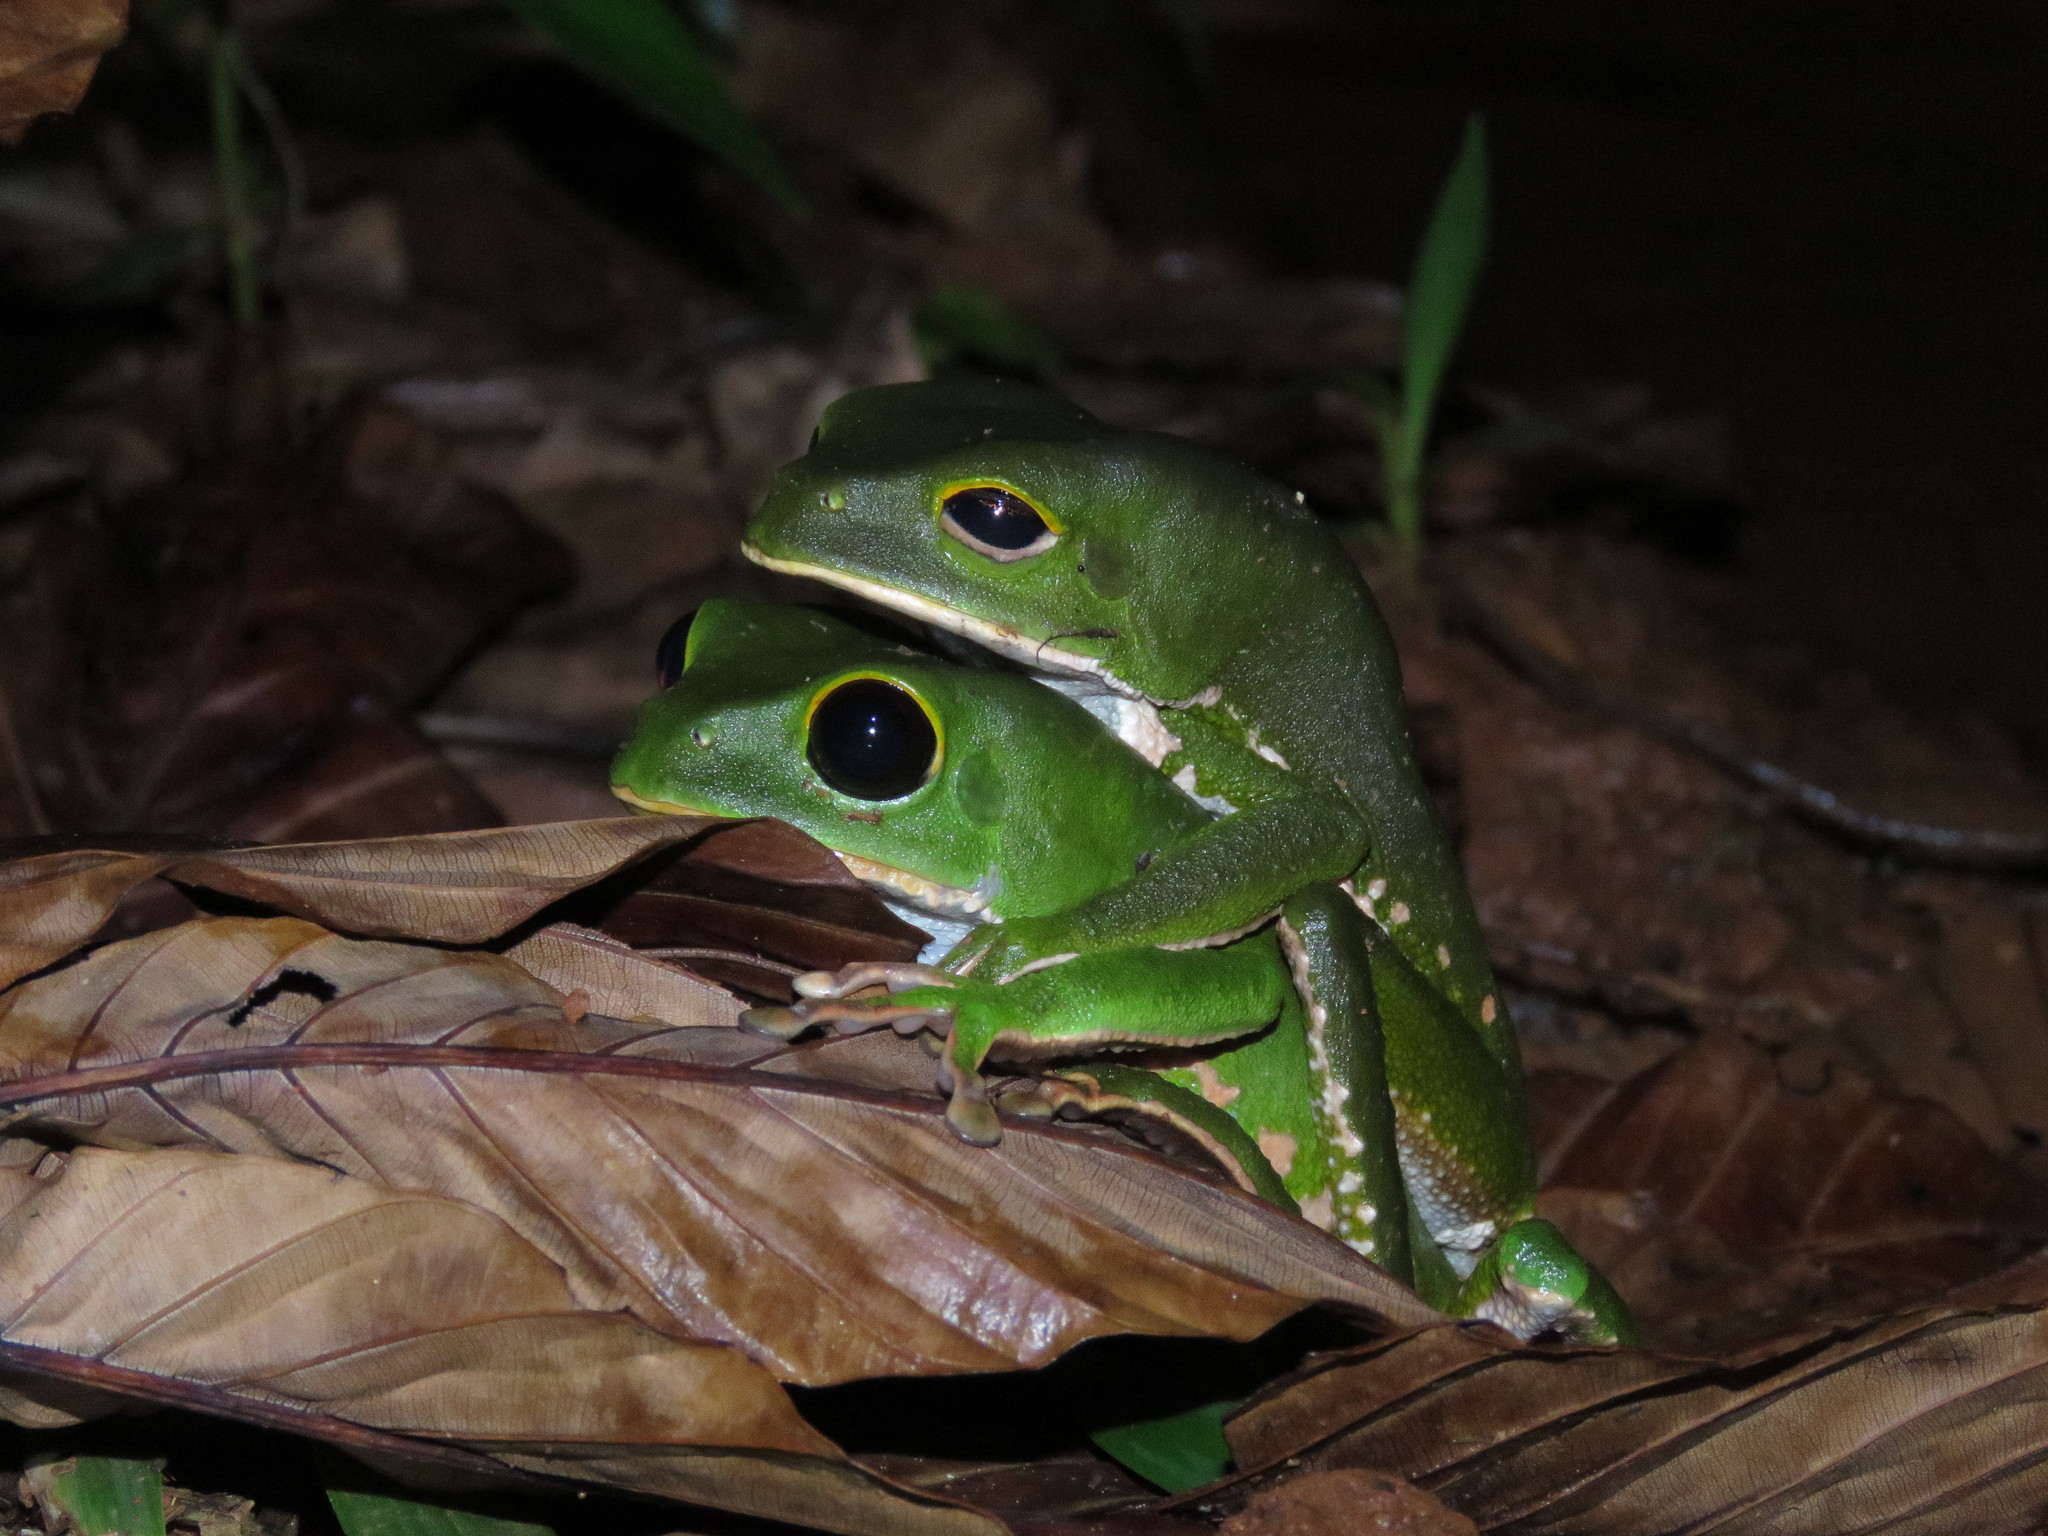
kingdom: Animalia
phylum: Chordata
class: Amphibia
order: Anura
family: Phyllomedusidae
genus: Phyllomedusa
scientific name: Phyllomedusa camba
